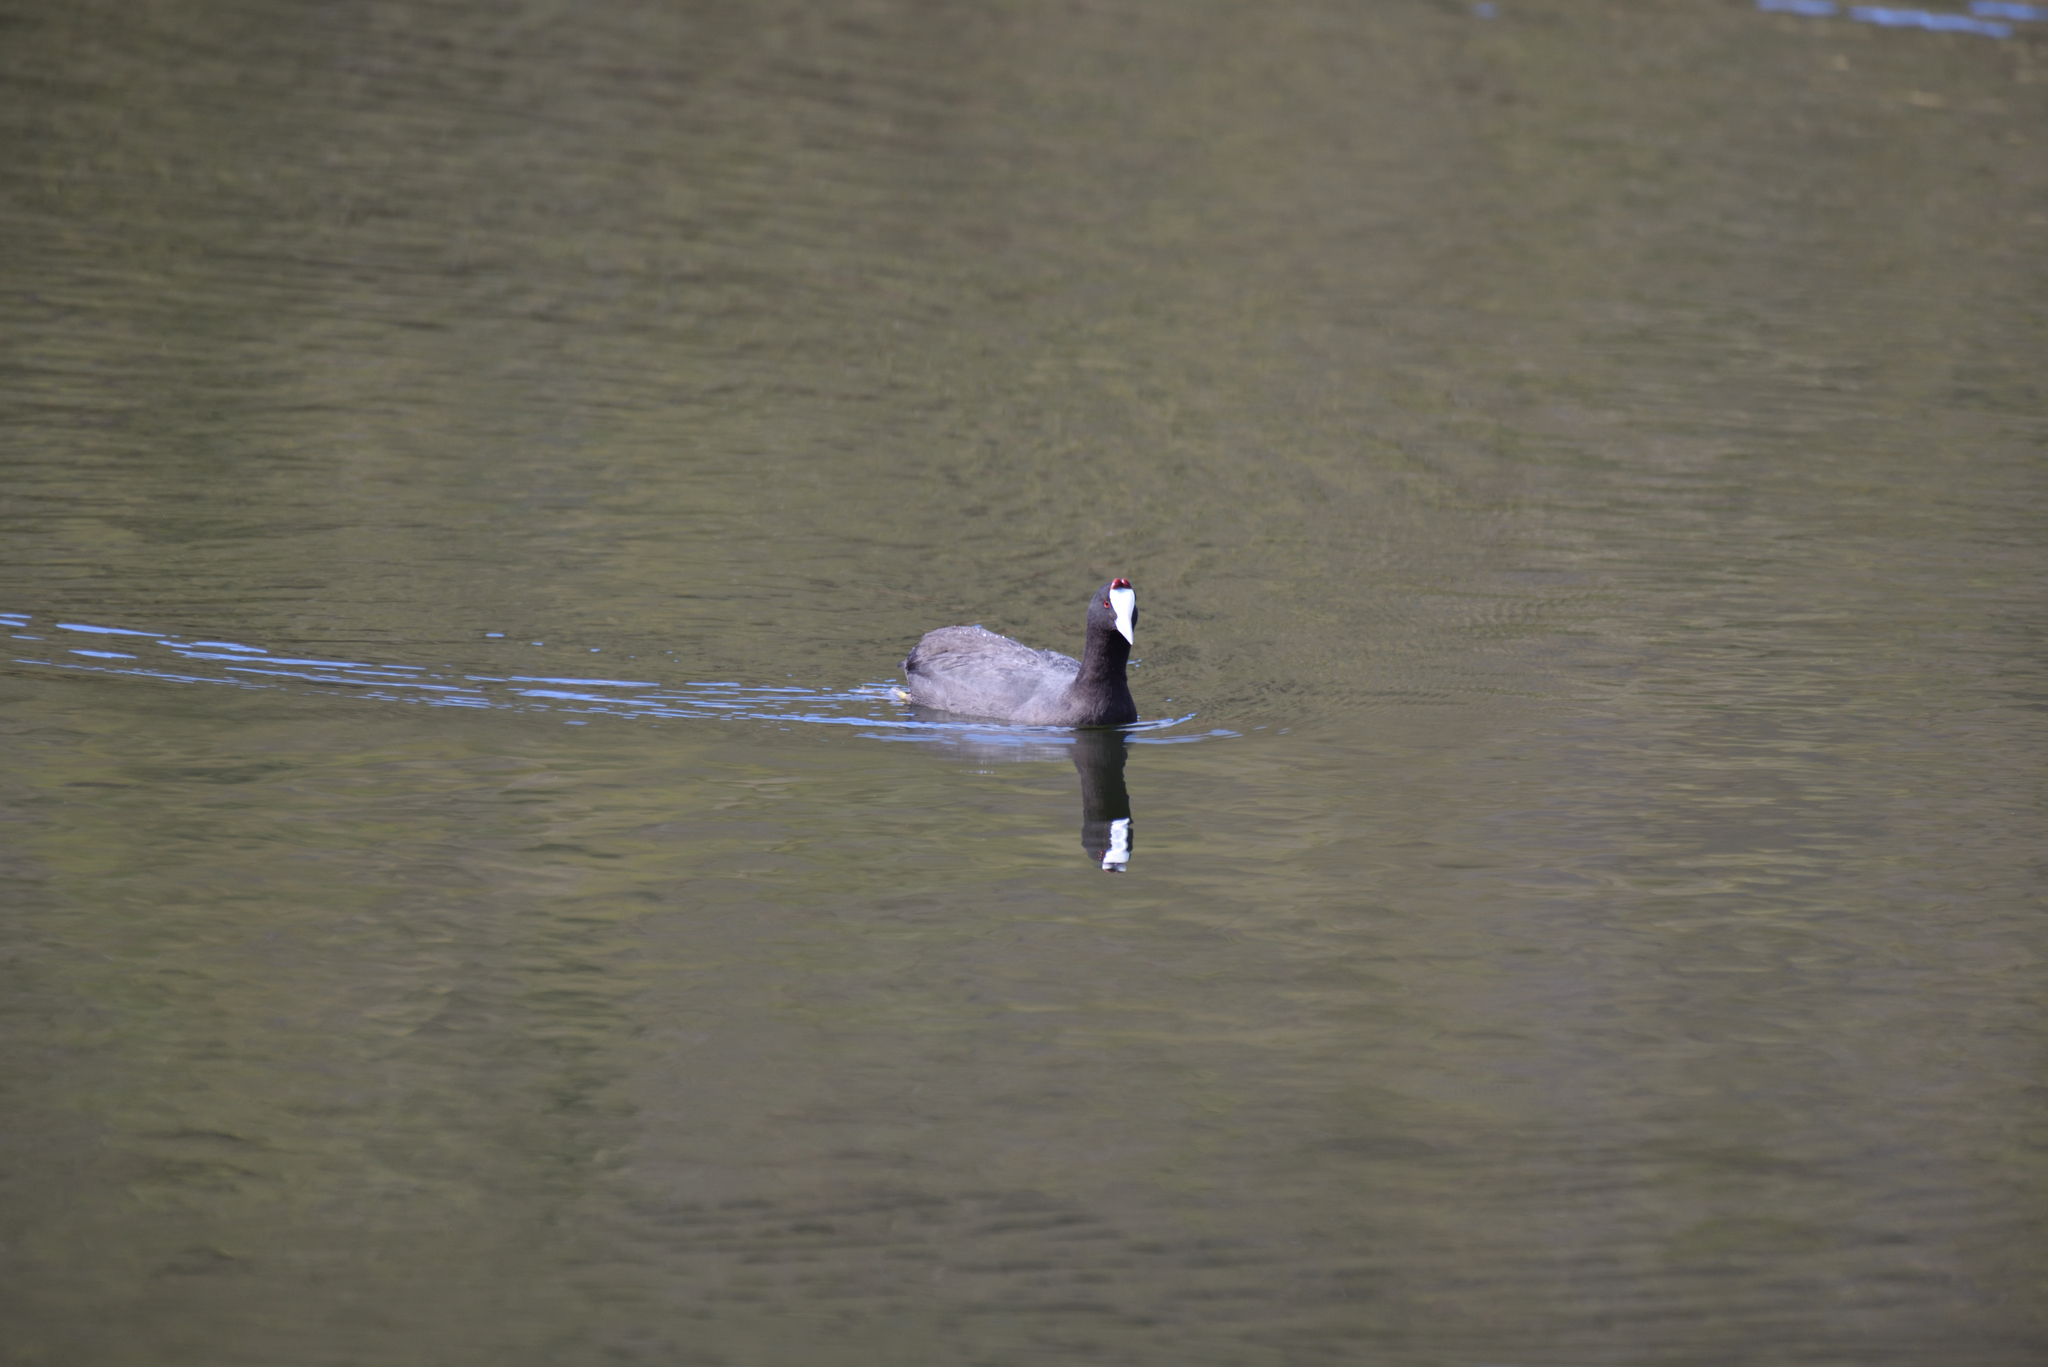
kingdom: Animalia
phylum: Chordata
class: Aves
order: Gruiformes
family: Rallidae
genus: Fulica
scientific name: Fulica cristata
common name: Red-knobbed coot
